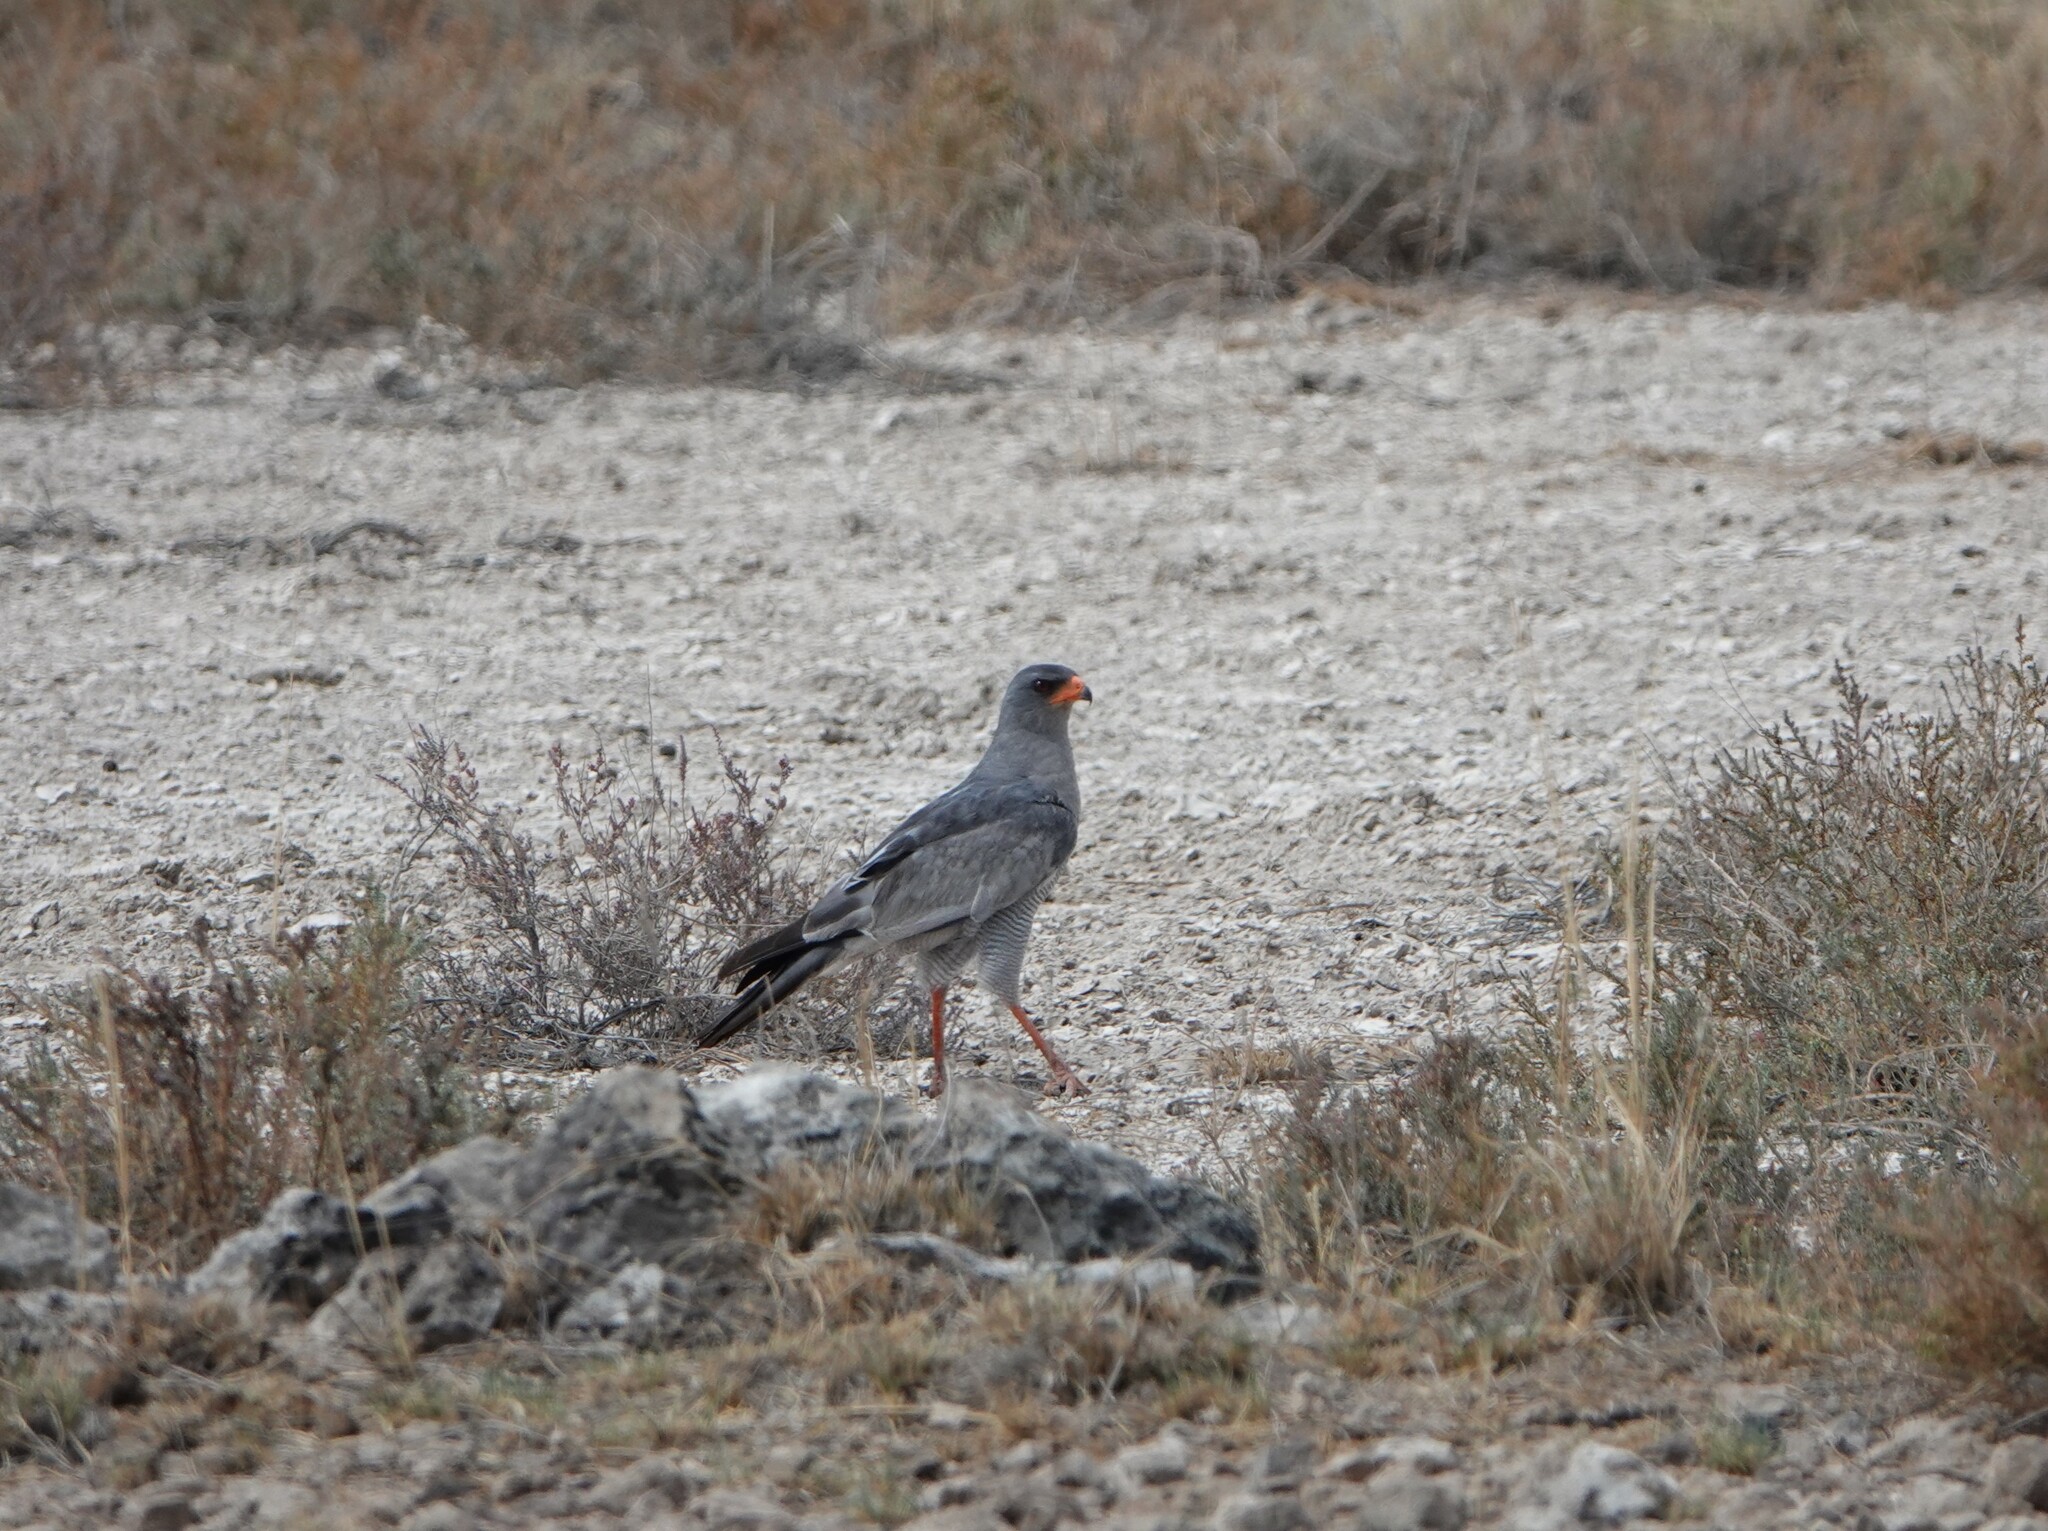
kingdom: Animalia
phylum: Chordata
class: Aves
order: Accipitriformes
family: Accipitridae
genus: Melierax
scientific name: Melierax canorus
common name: Pale chanting-goshawk
